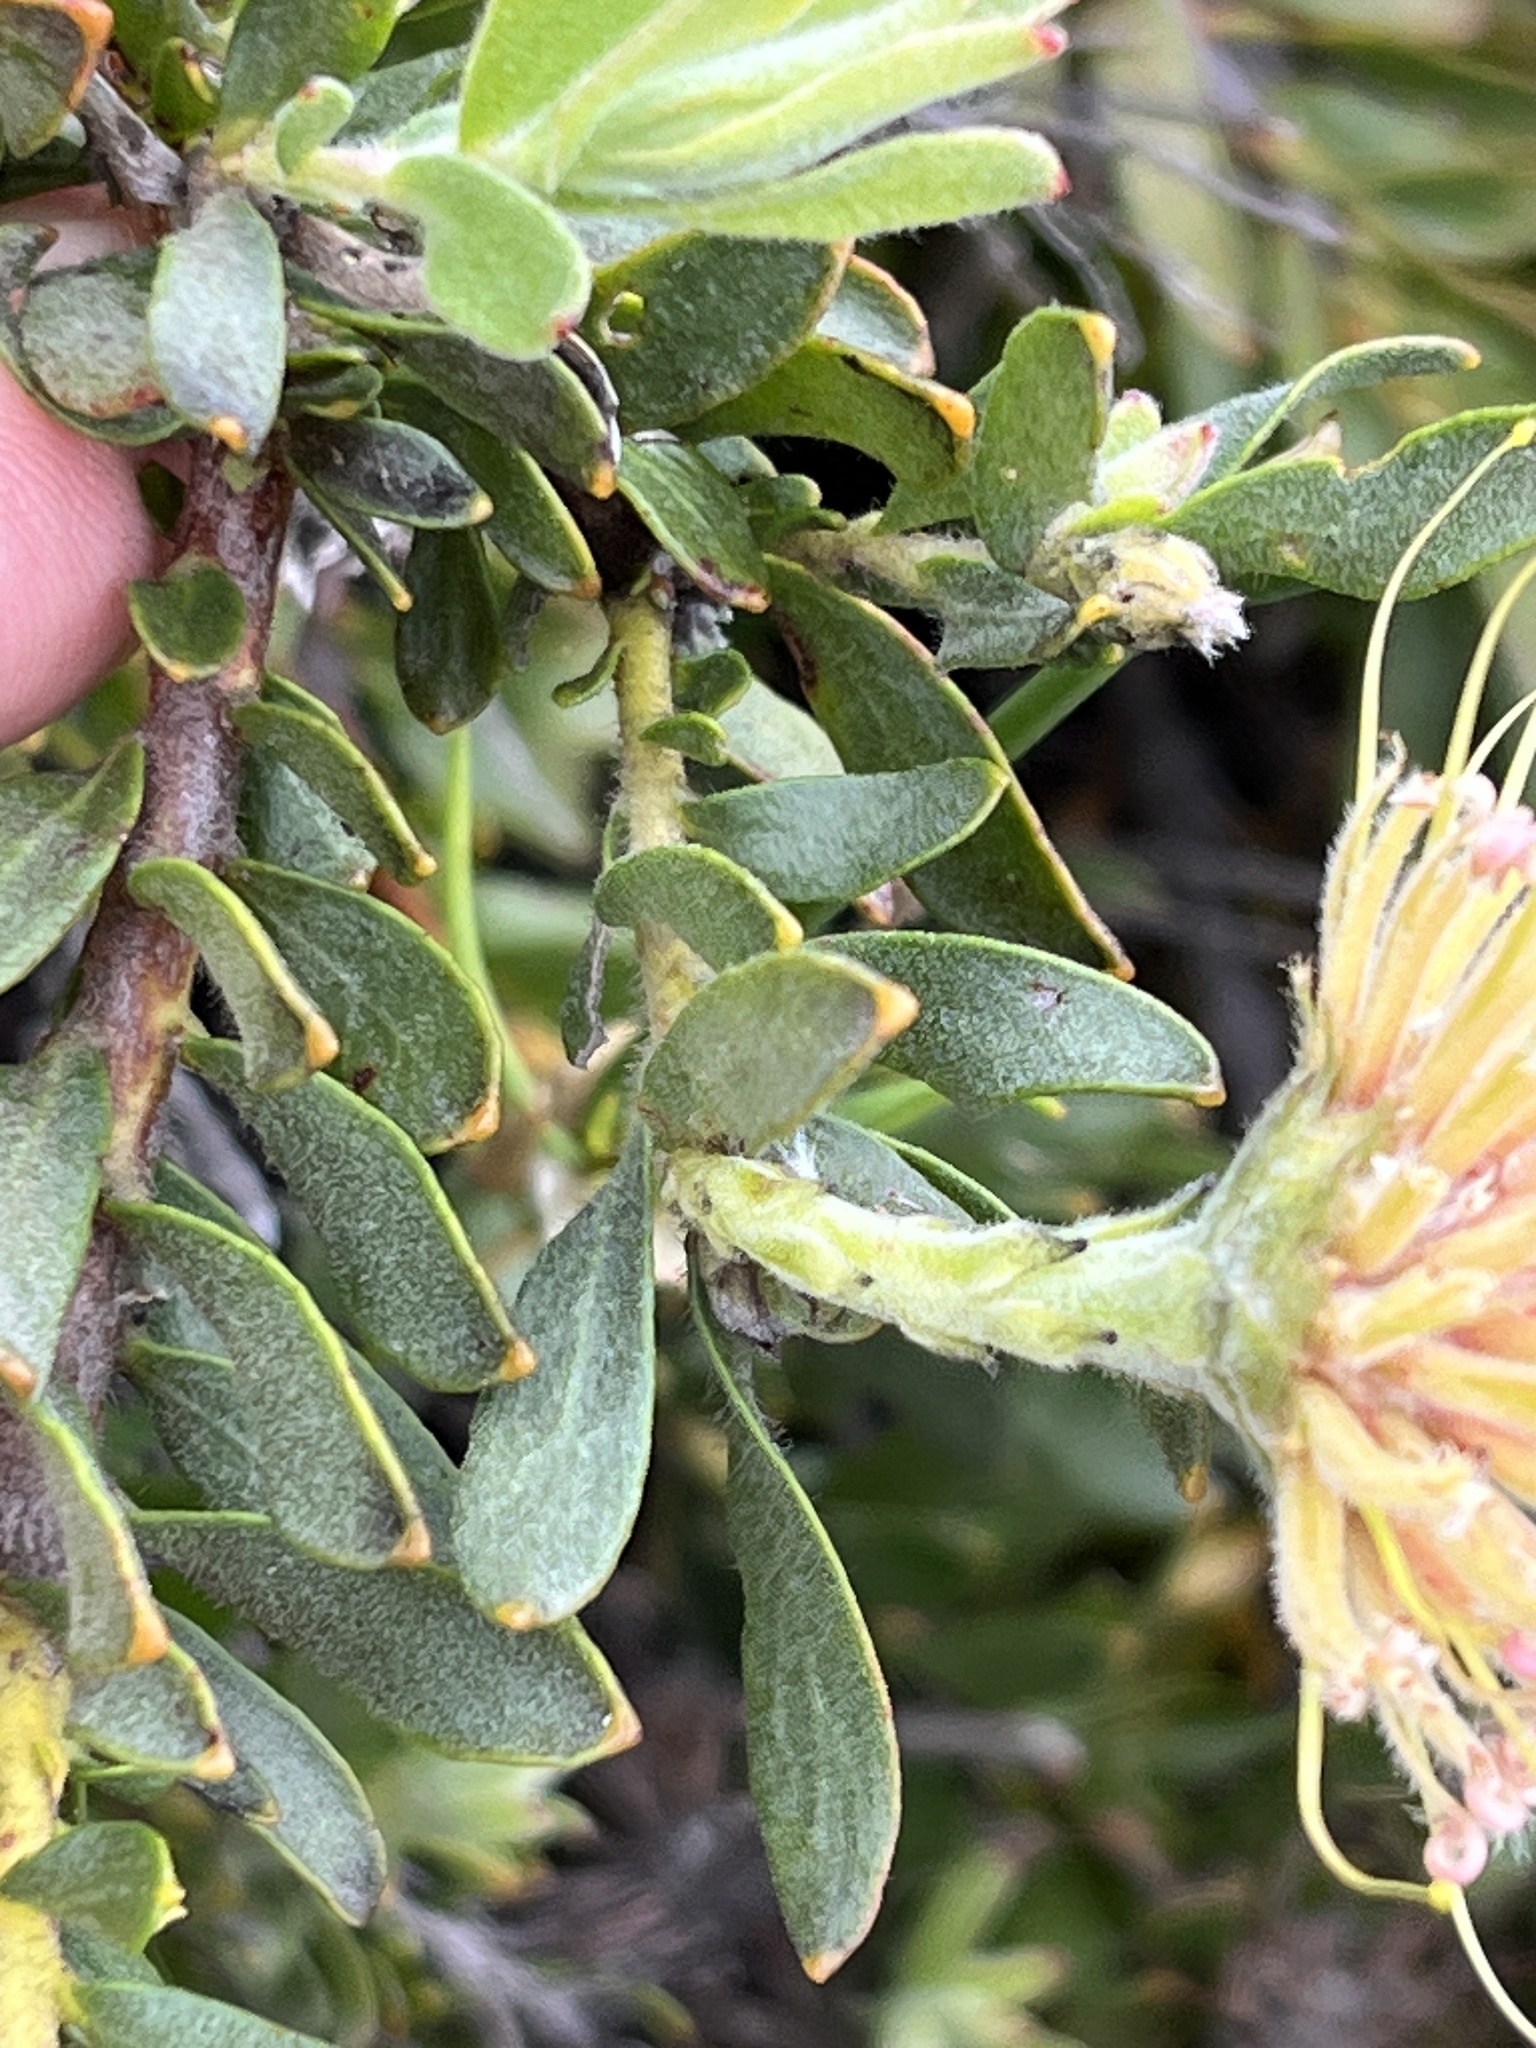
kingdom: Plantae
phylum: Tracheophyta
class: Magnoliopsida
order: Proteales
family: Proteaceae
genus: Leucospermum
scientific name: Leucospermum heterophyllum
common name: Trident pincushion
